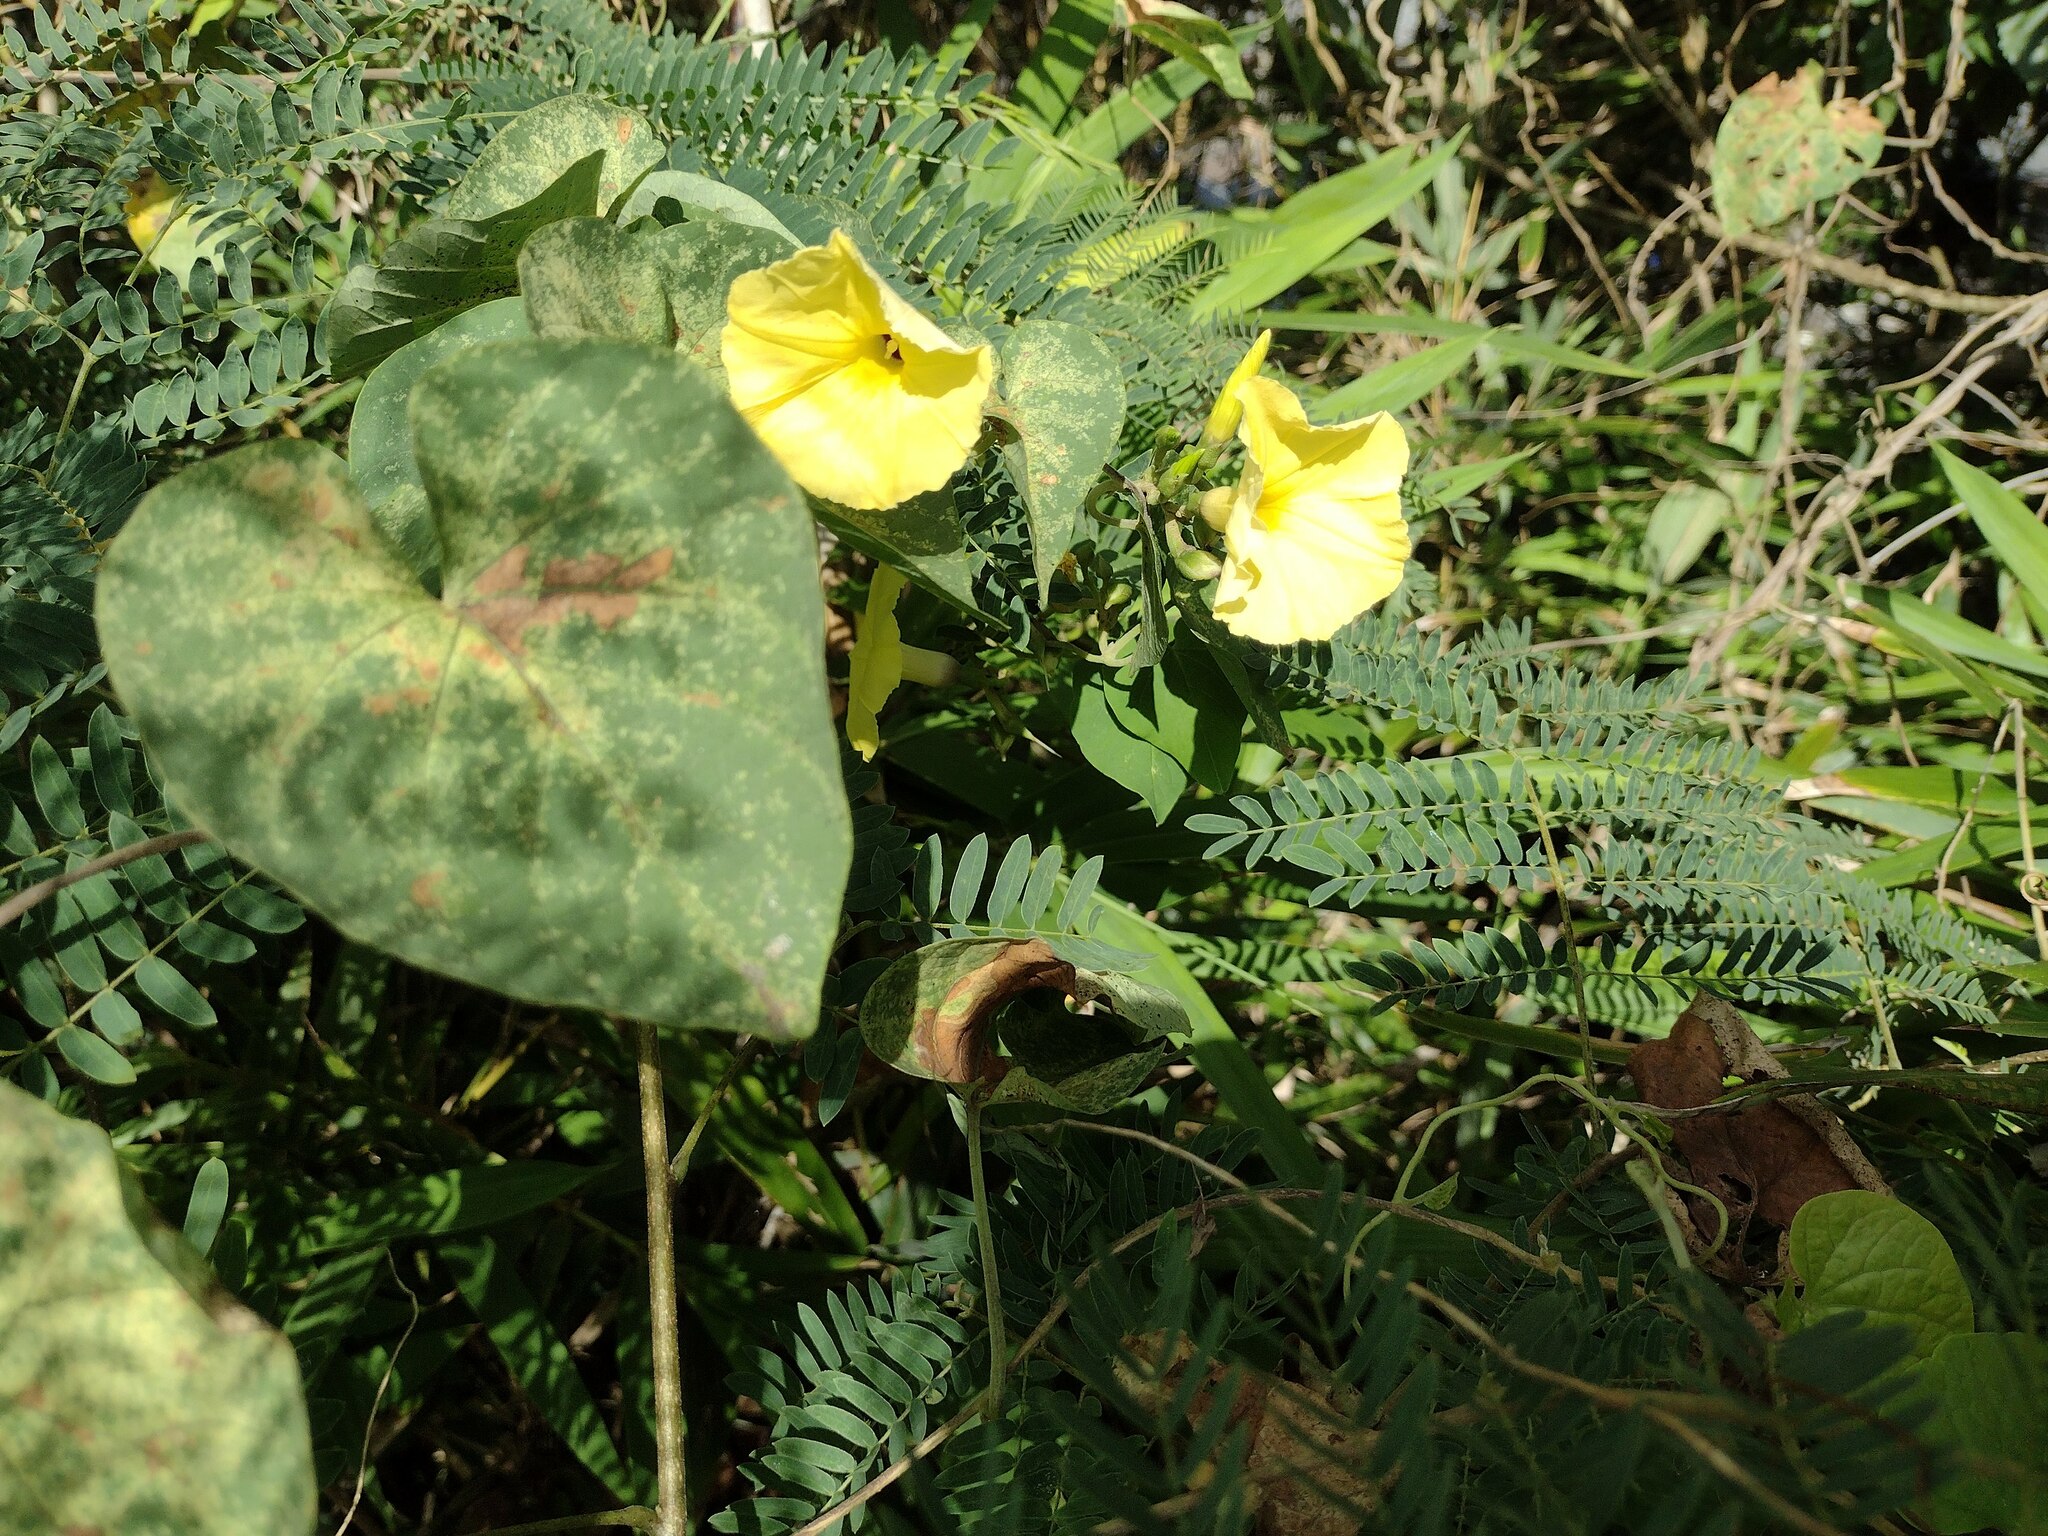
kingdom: Plantae
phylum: Tracheophyta
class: Magnoliopsida
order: Solanales
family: Convolvulaceae
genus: Ipomoea
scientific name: Ipomoea ochracea
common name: Fence morning-glory
